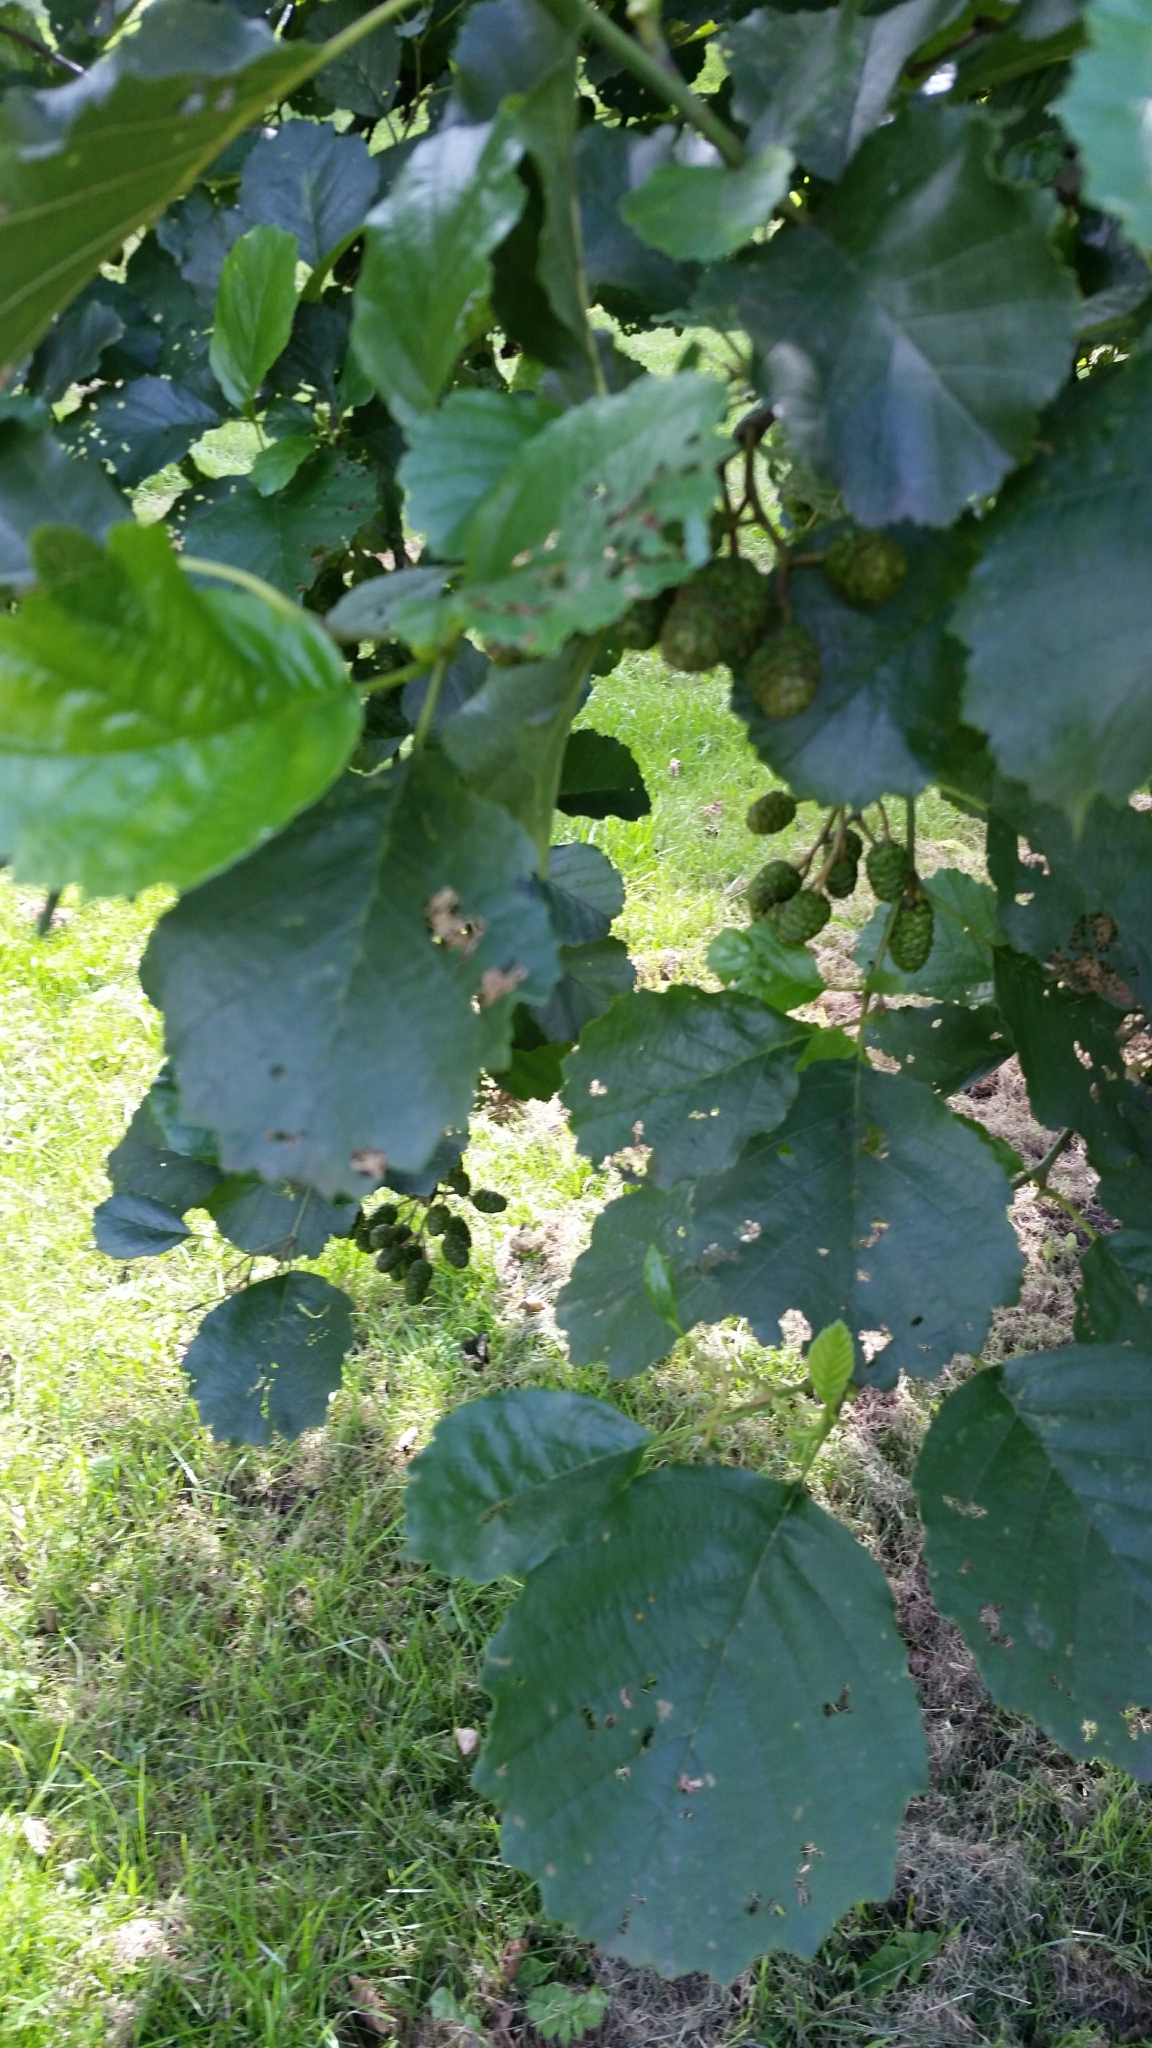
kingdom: Plantae
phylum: Tracheophyta
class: Magnoliopsida
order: Fagales
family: Betulaceae
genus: Alnus
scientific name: Alnus glutinosa
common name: Black alder
